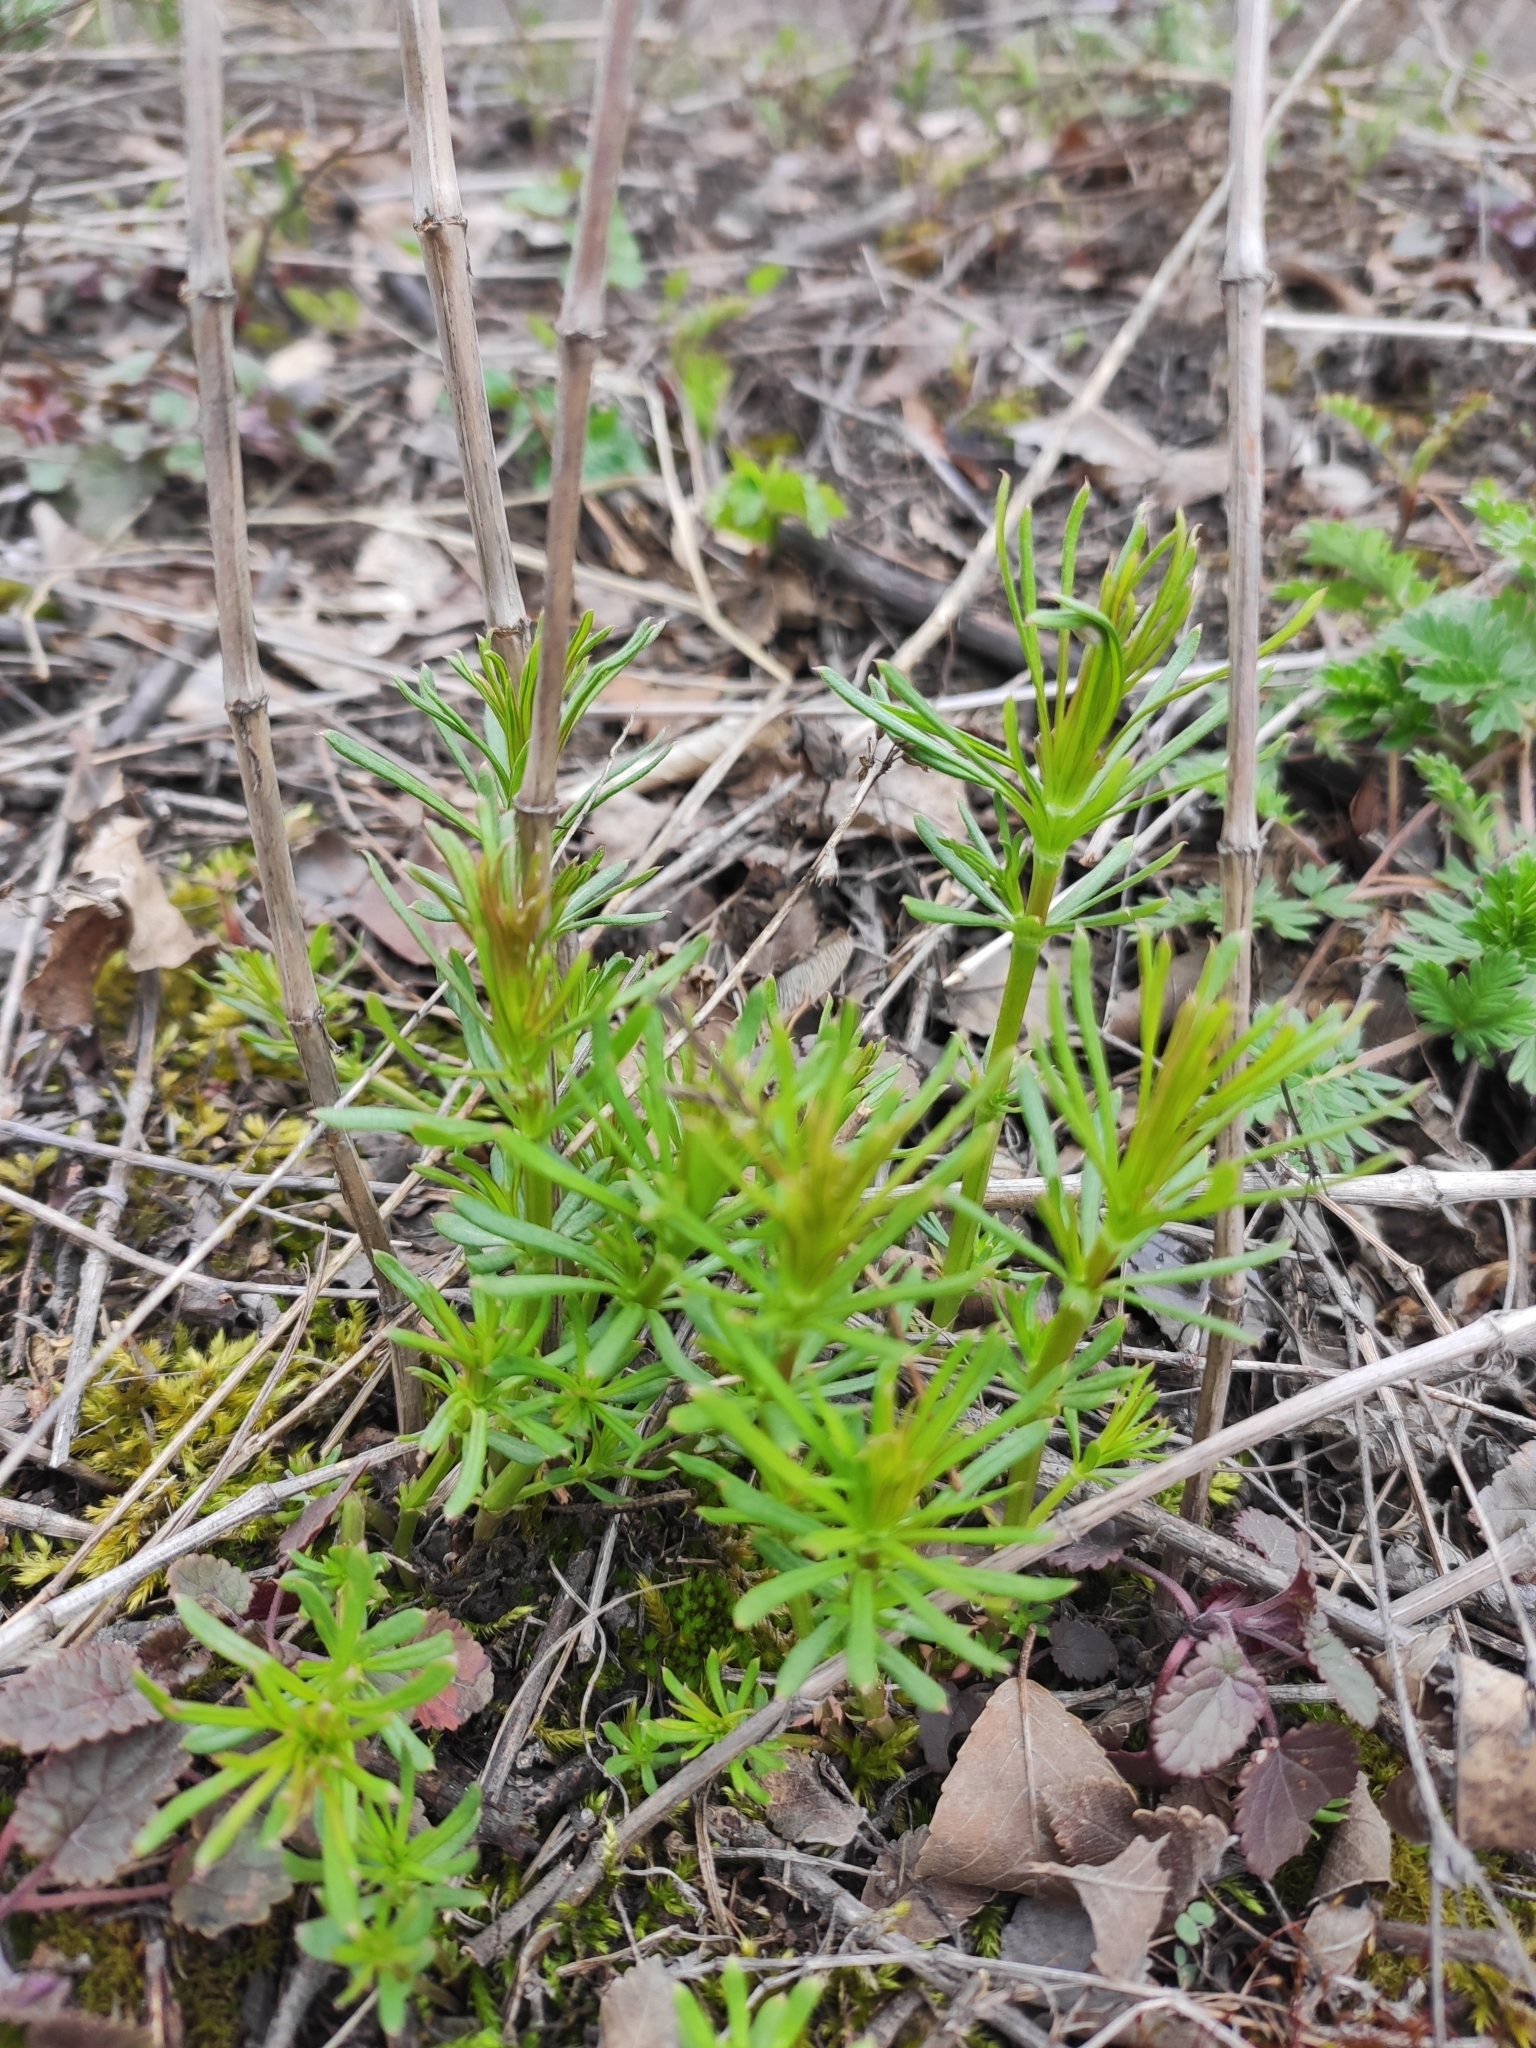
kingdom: Plantae
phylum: Tracheophyta
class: Magnoliopsida
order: Gentianales
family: Rubiaceae
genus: Galium
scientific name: Galium verum
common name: Lady's bedstraw
